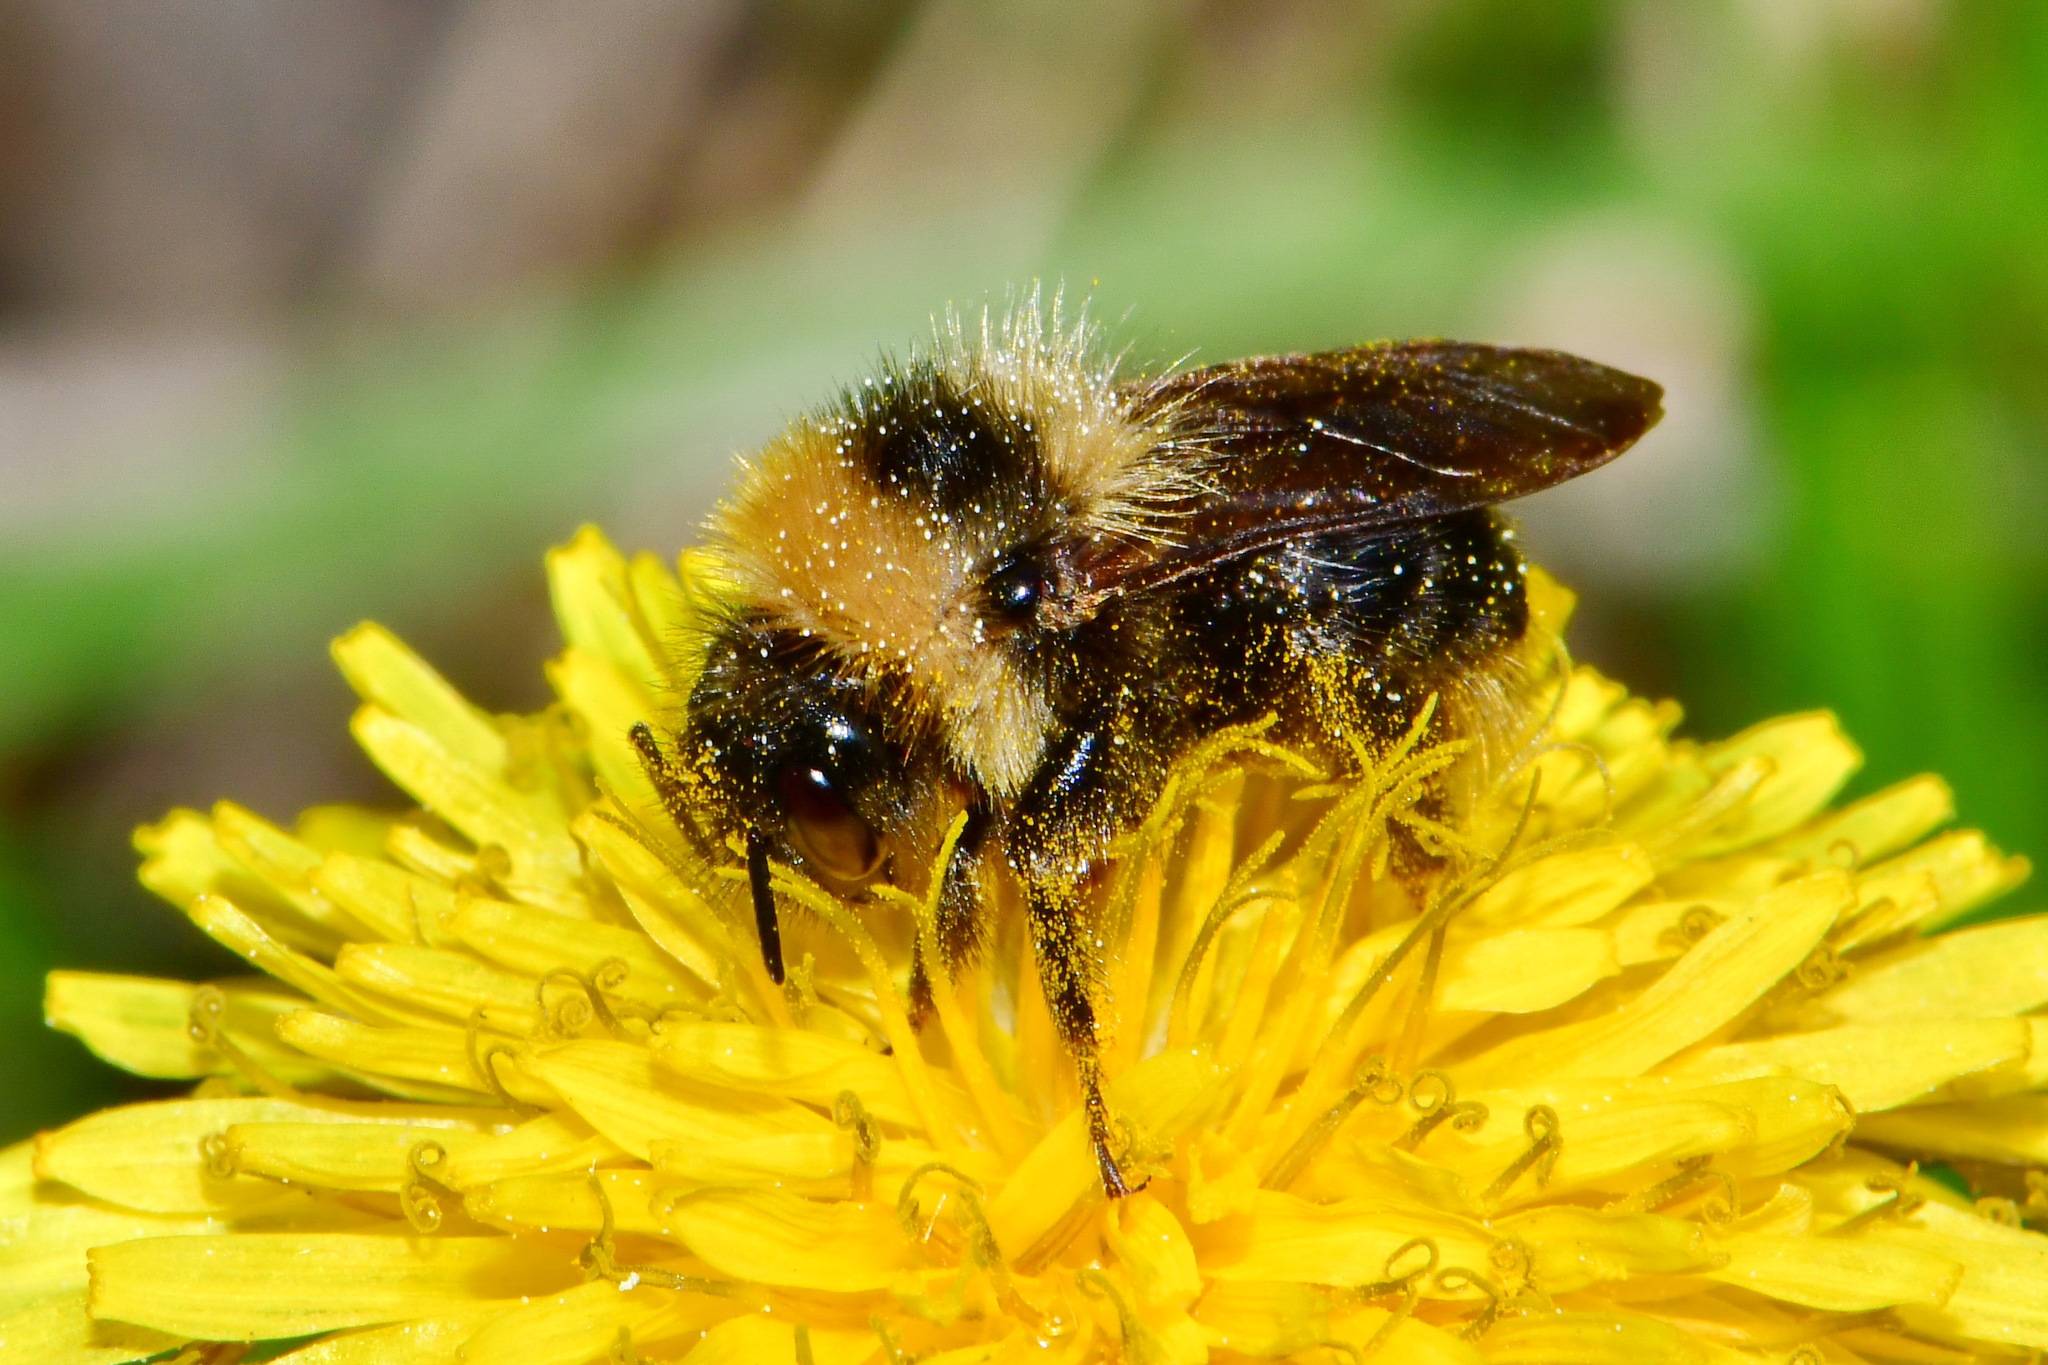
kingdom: Animalia
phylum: Arthropoda
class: Insecta
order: Hymenoptera
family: Apidae
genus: Bombus
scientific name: Bombus campestris
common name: Field cuckoo-bee
